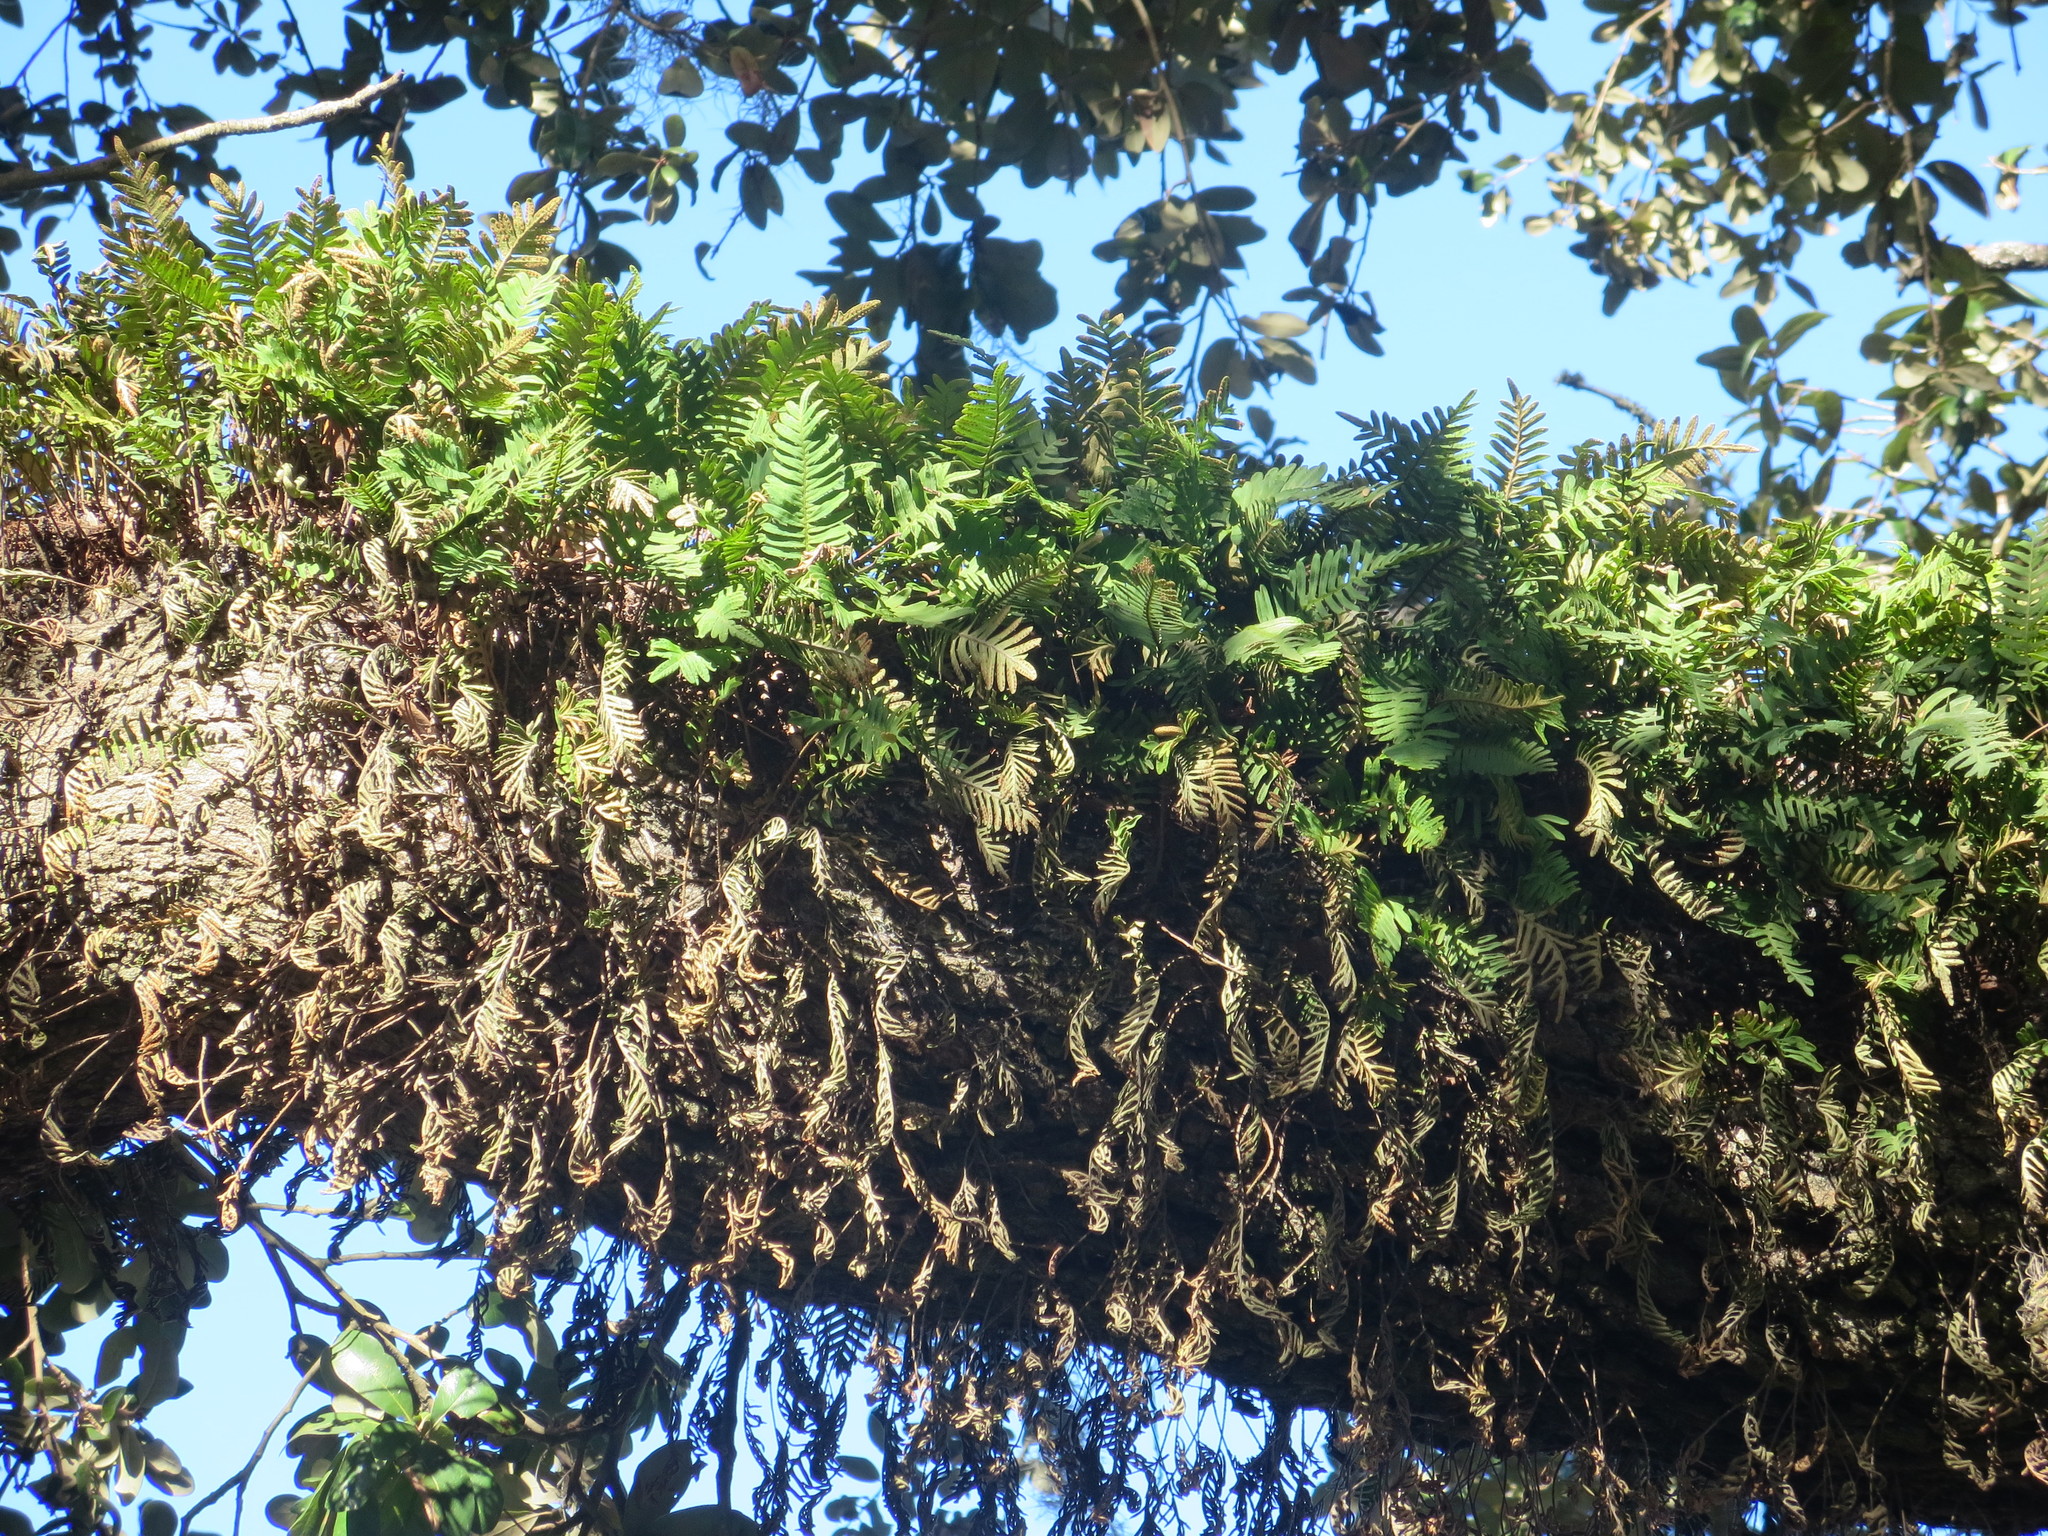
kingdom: Plantae
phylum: Tracheophyta
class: Polypodiopsida
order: Polypodiales
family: Polypodiaceae
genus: Pleopeltis
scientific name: Pleopeltis michauxiana
